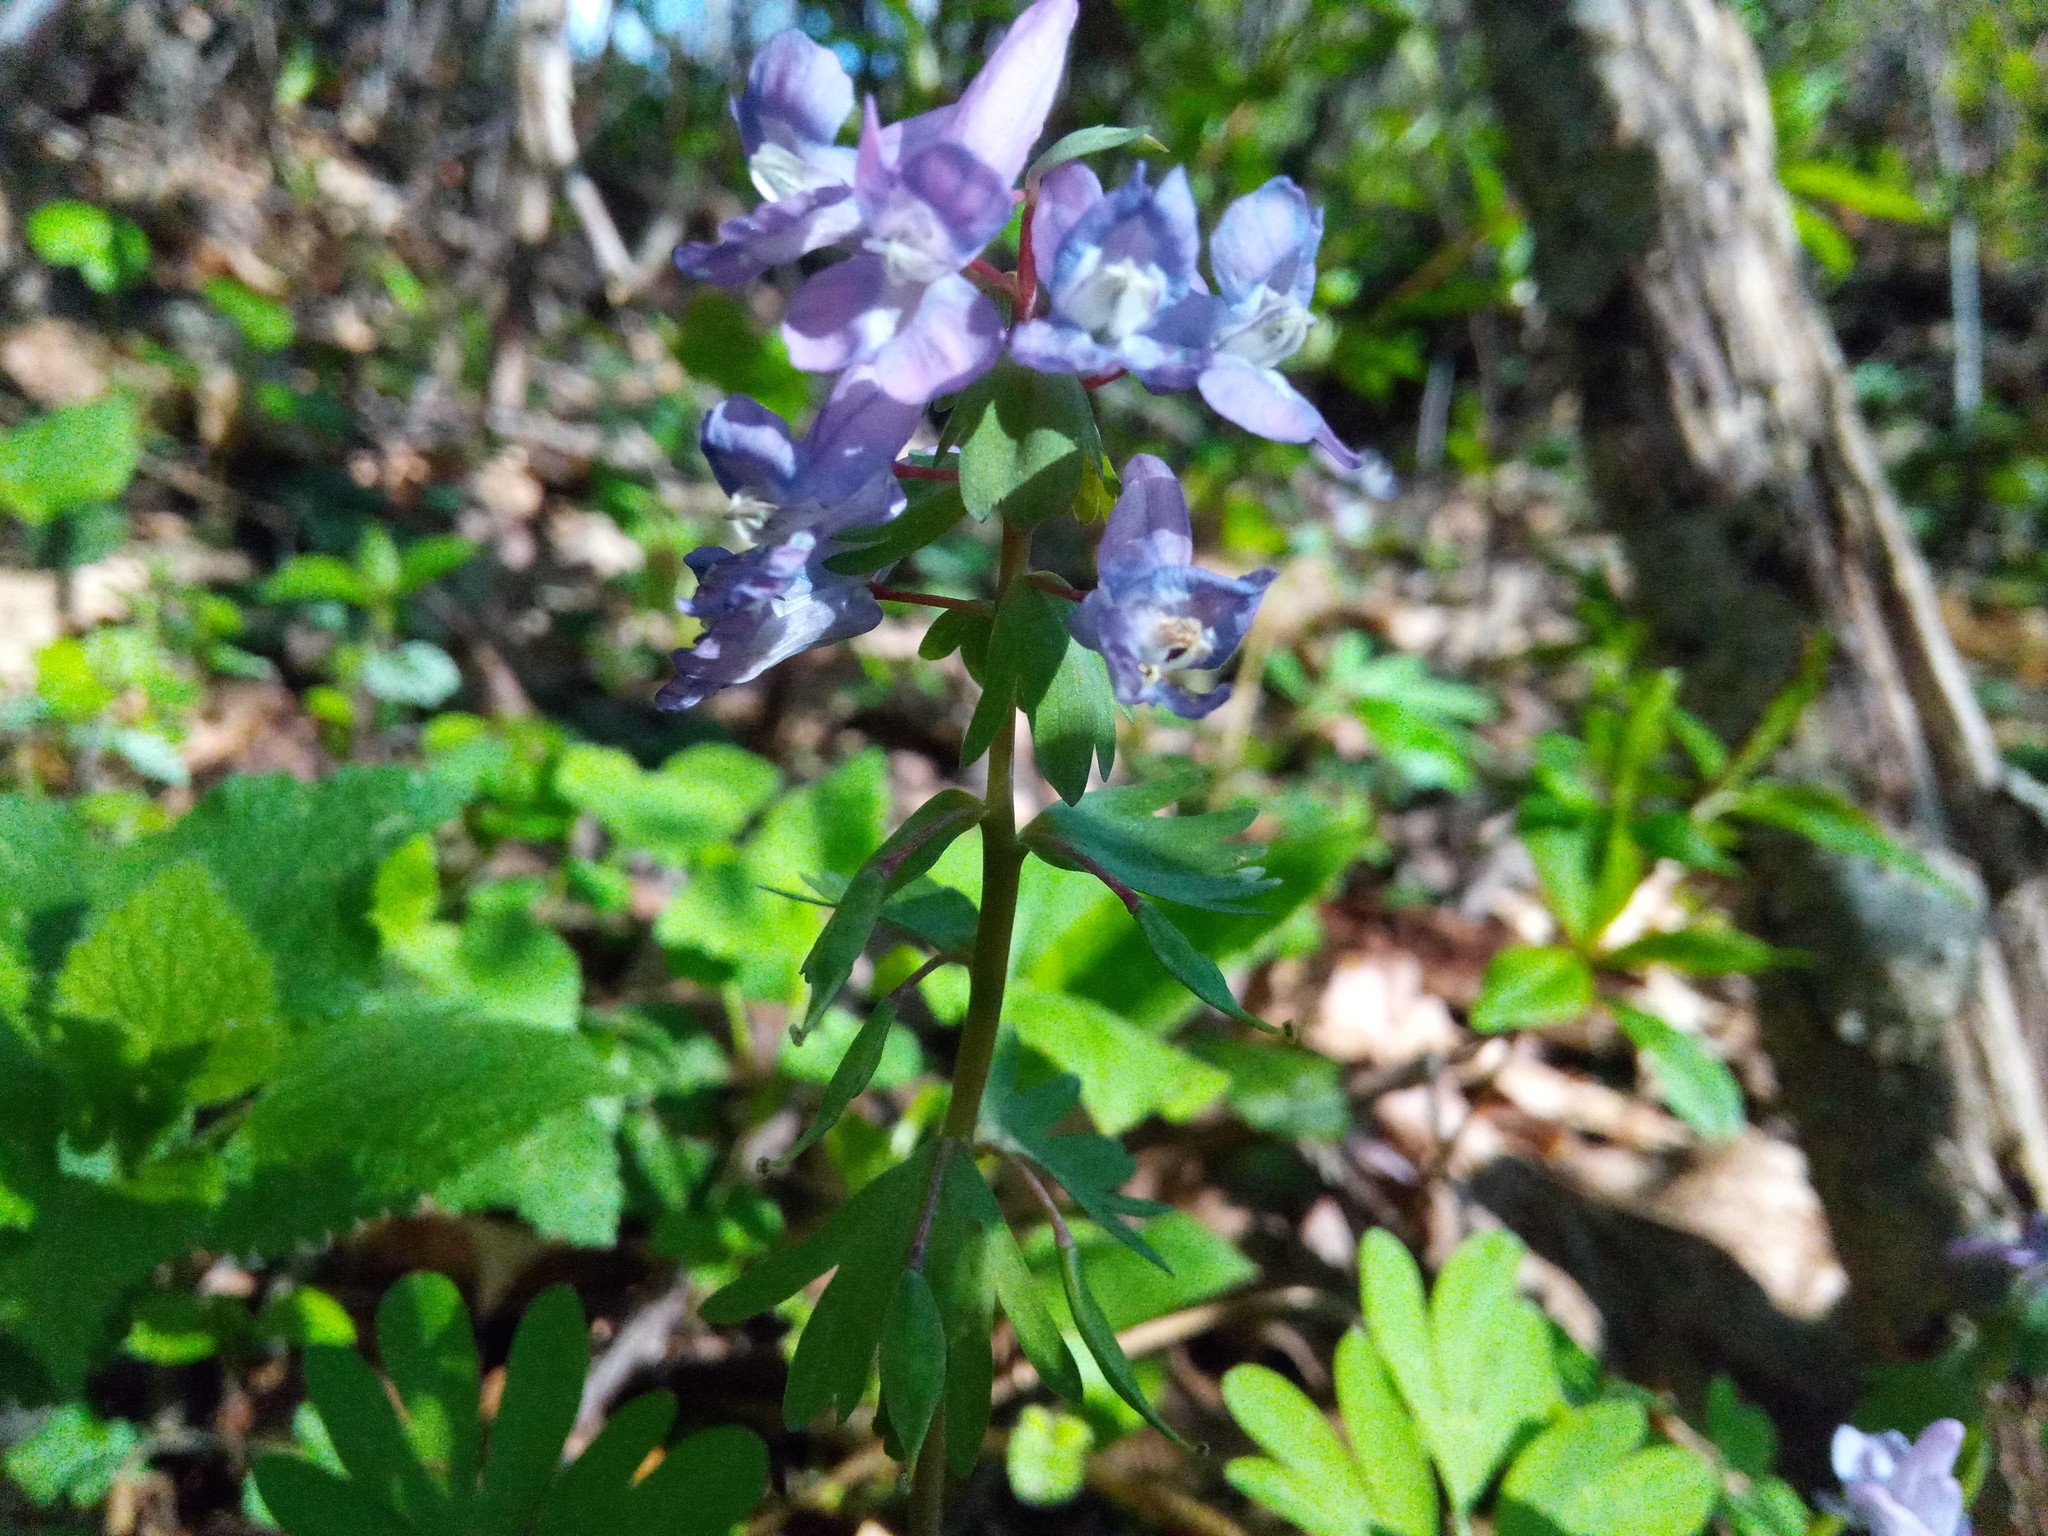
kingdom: Plantae
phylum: Tracheophyta
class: Magnoliopsida
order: Ranunculales
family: Papaveraceae
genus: Corydalis
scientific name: Corydalis solida
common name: Bird-in-a-bush
